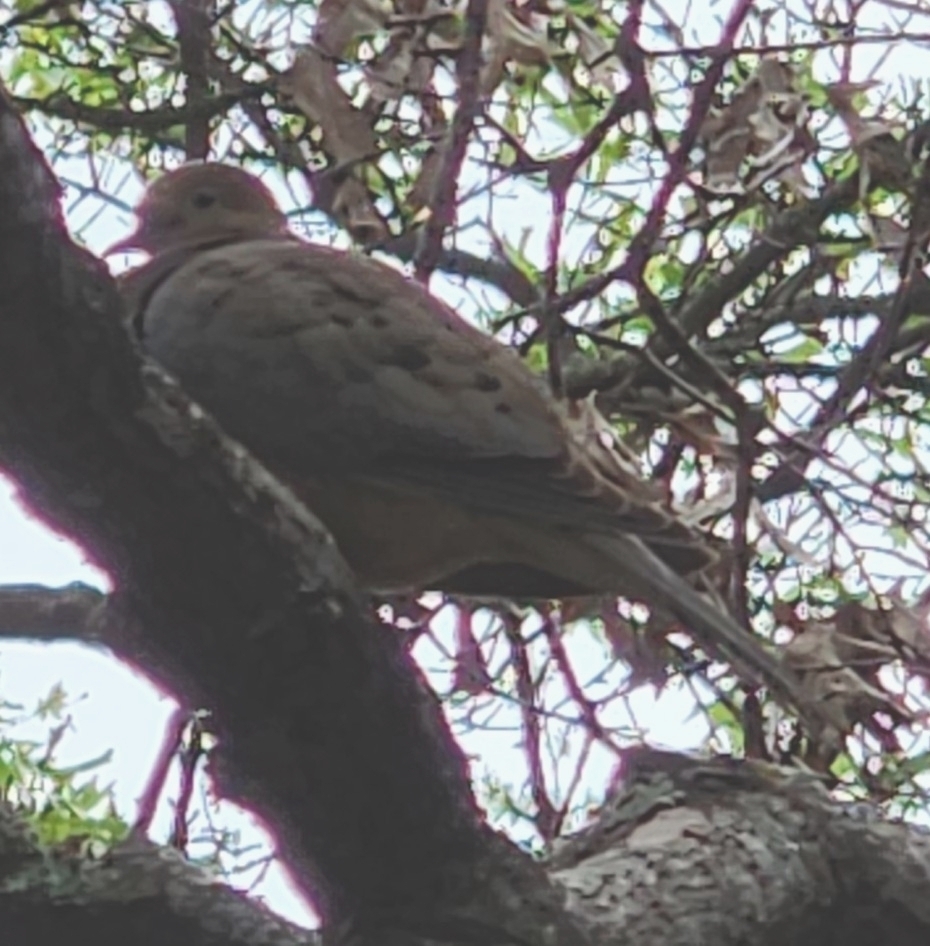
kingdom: Animalia
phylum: Chordata
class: Aves
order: Columbiformes
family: Columbidae
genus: Zenaida
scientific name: Zenaida macroura
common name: Mourning dove
